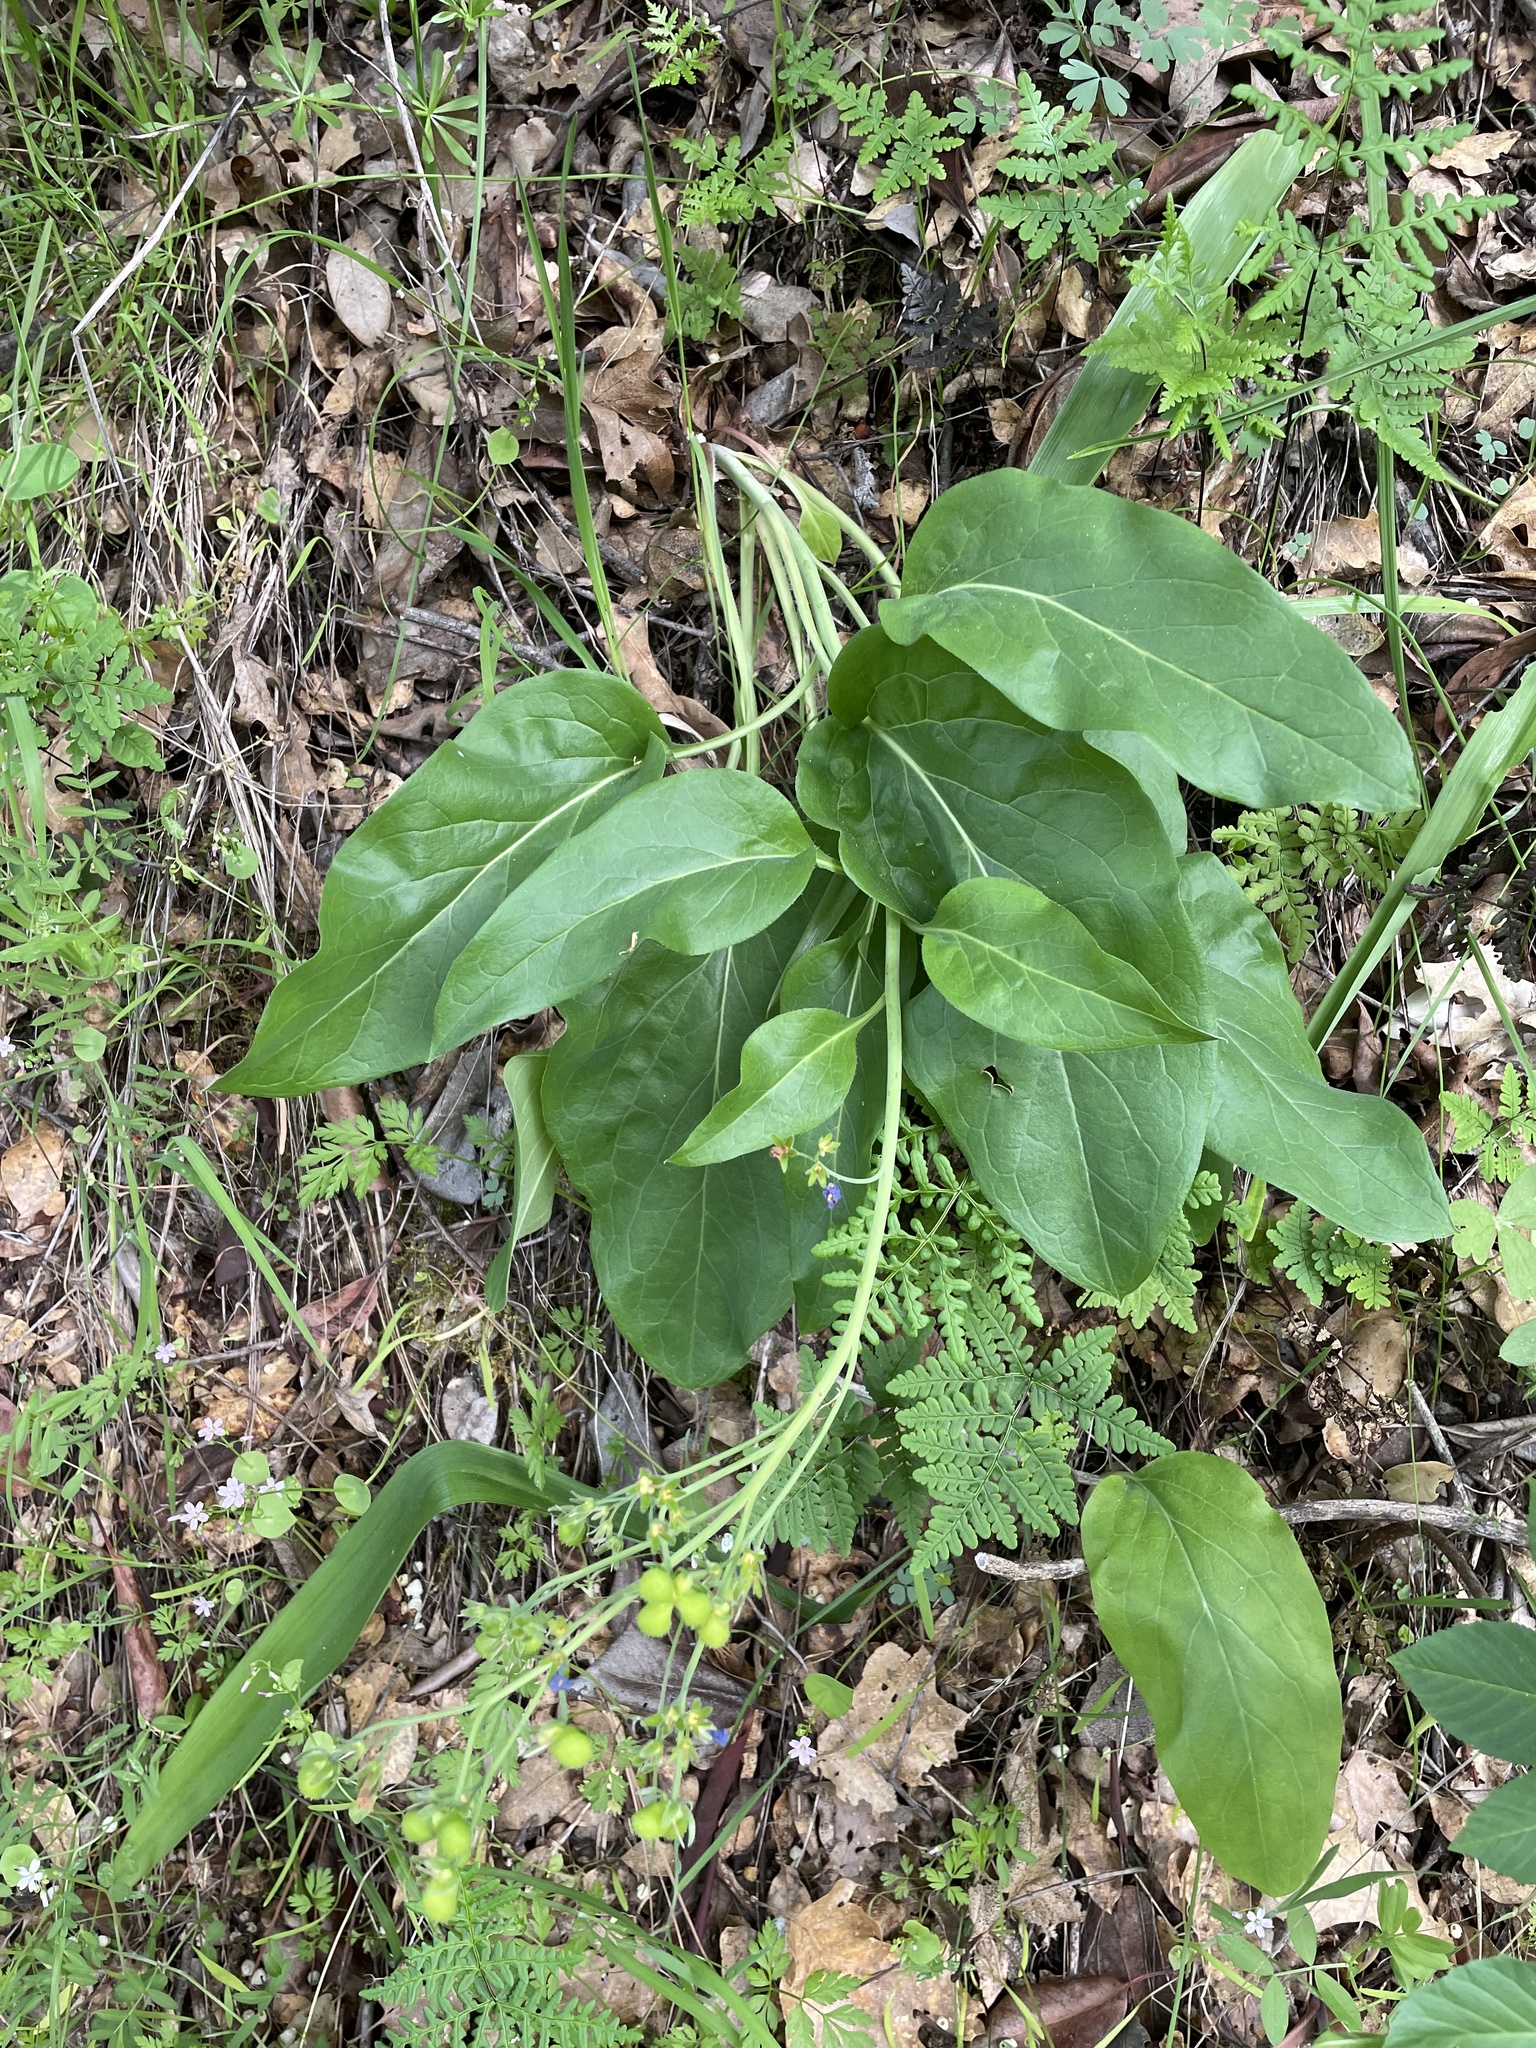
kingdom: Plantae
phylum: Tracheophyta
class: Magnoliopsida
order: Boraginales
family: Boraginaceae
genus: Adelinia
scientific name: Adelinia grande
